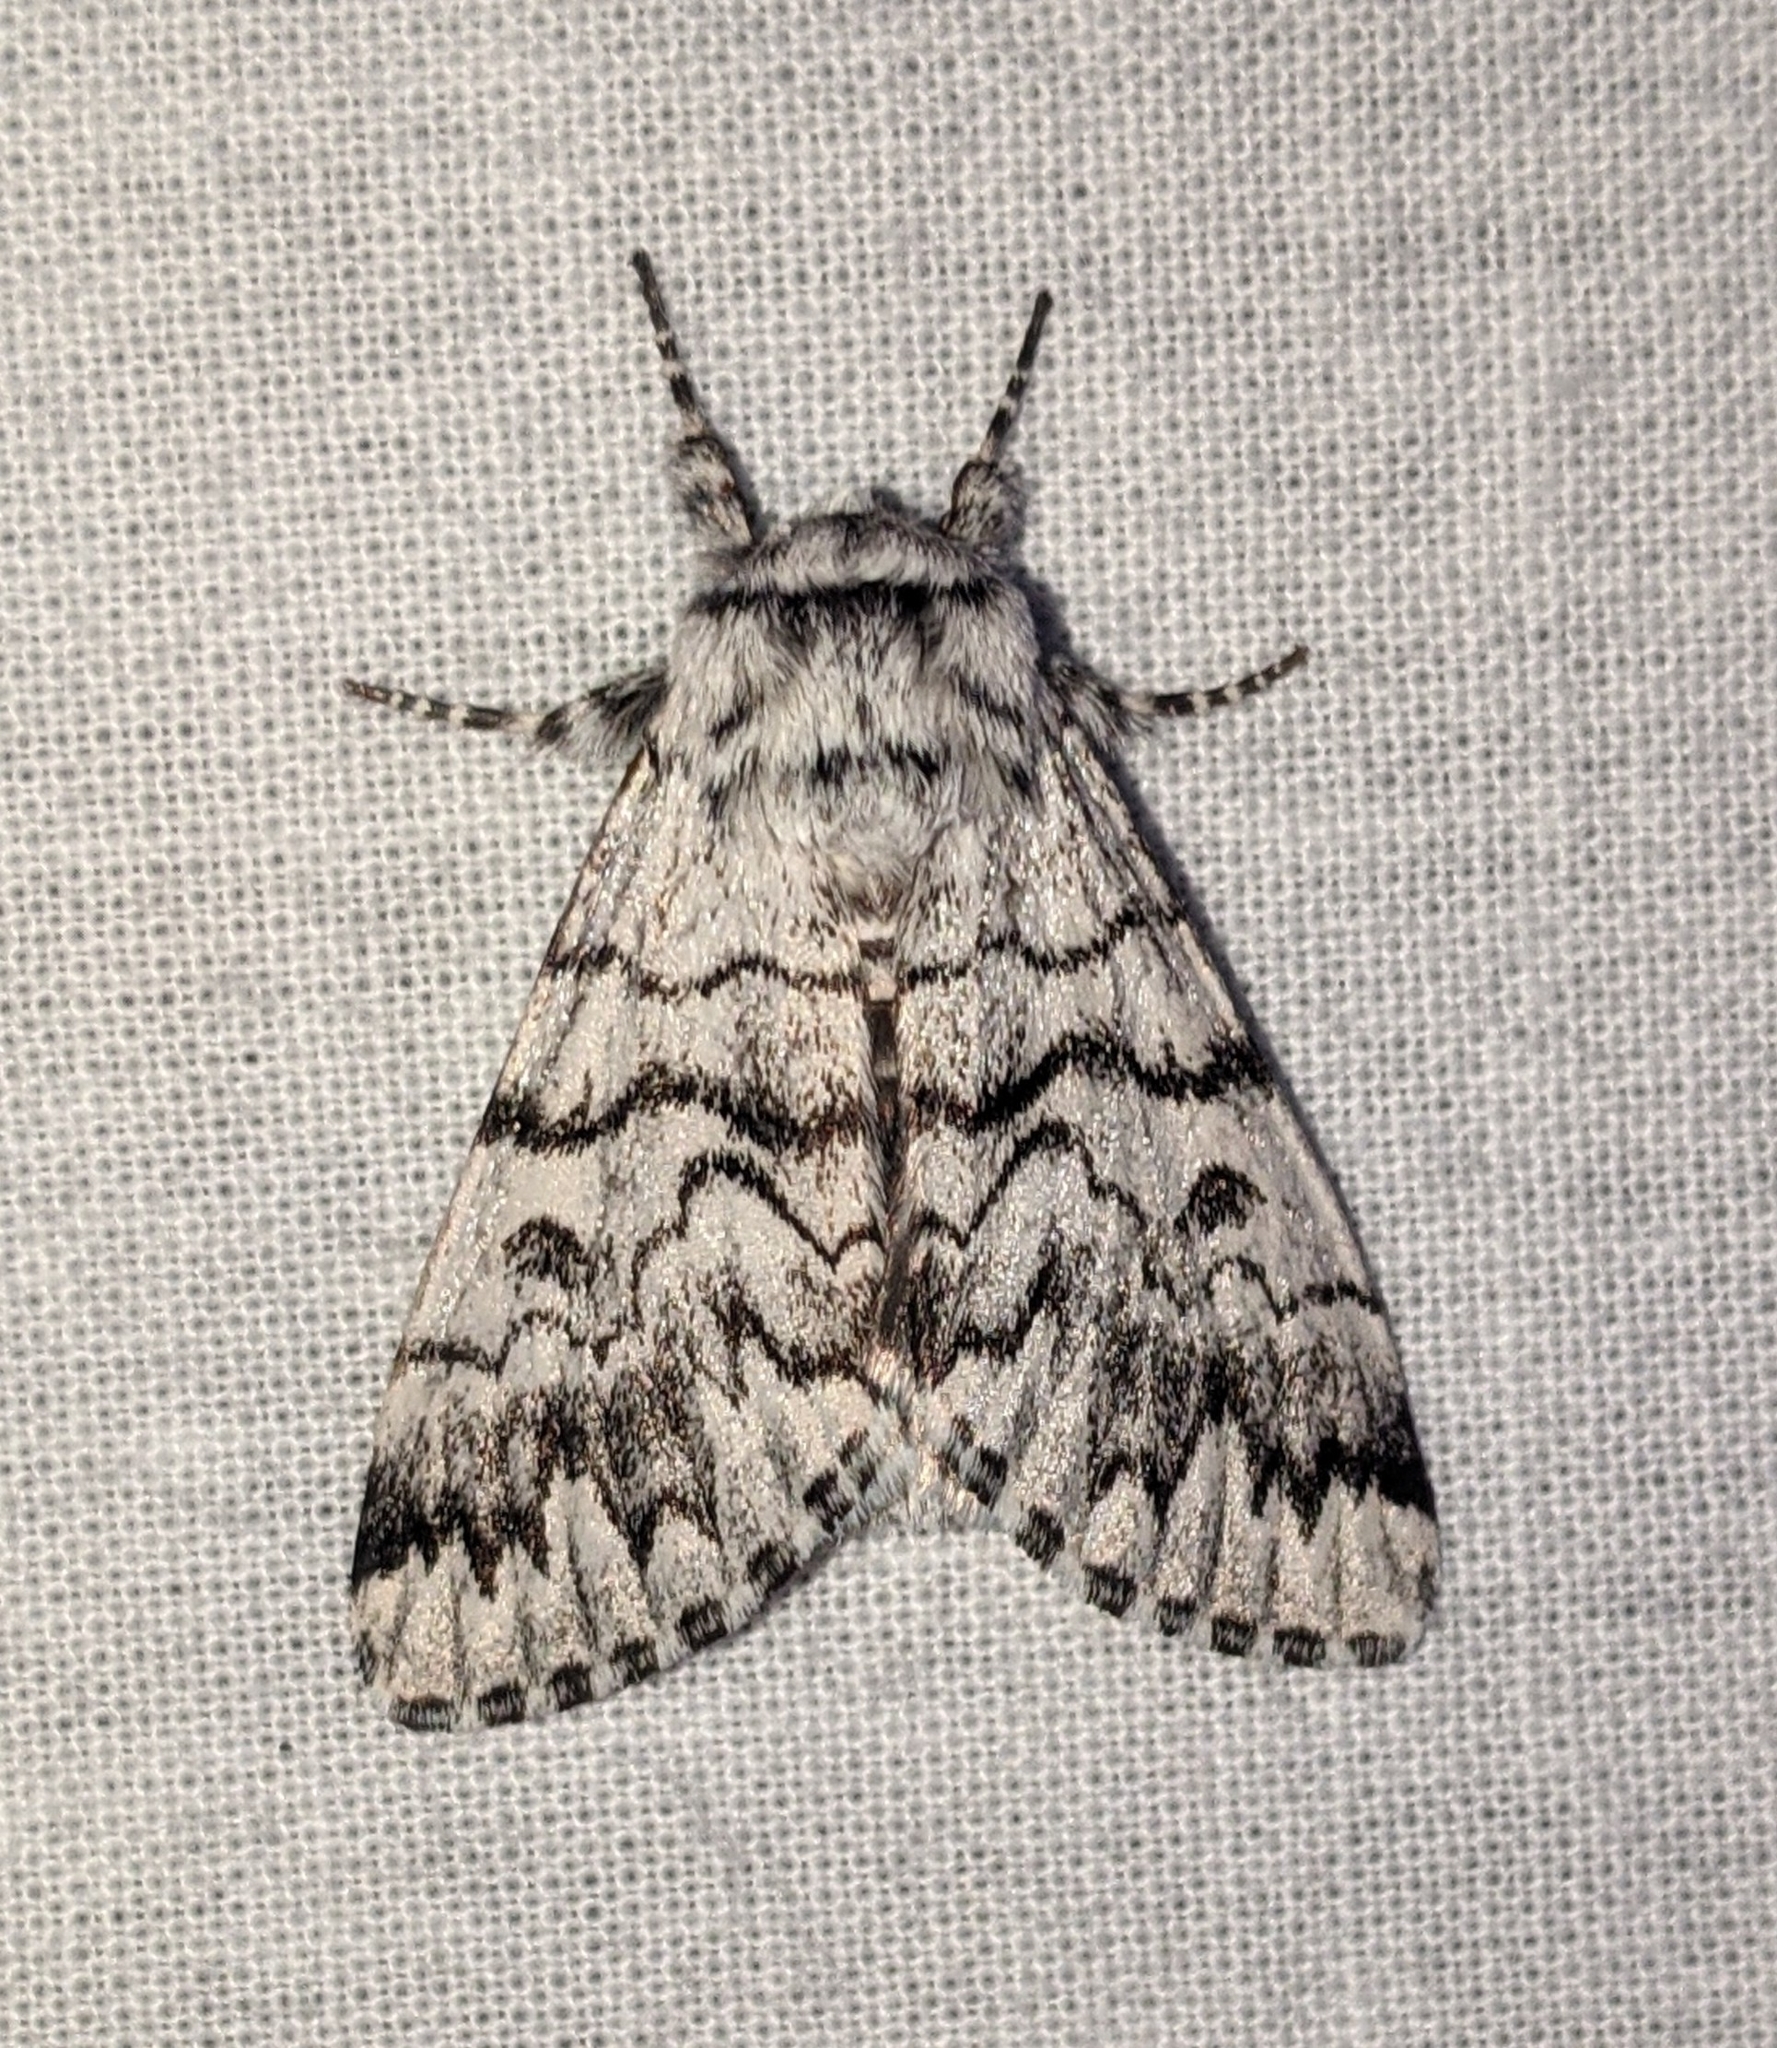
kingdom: Animalia
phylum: Arthropoda
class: Insecta
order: Lepidoptera
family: Noctuidae
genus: Panthea
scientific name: Panthea virginarius
